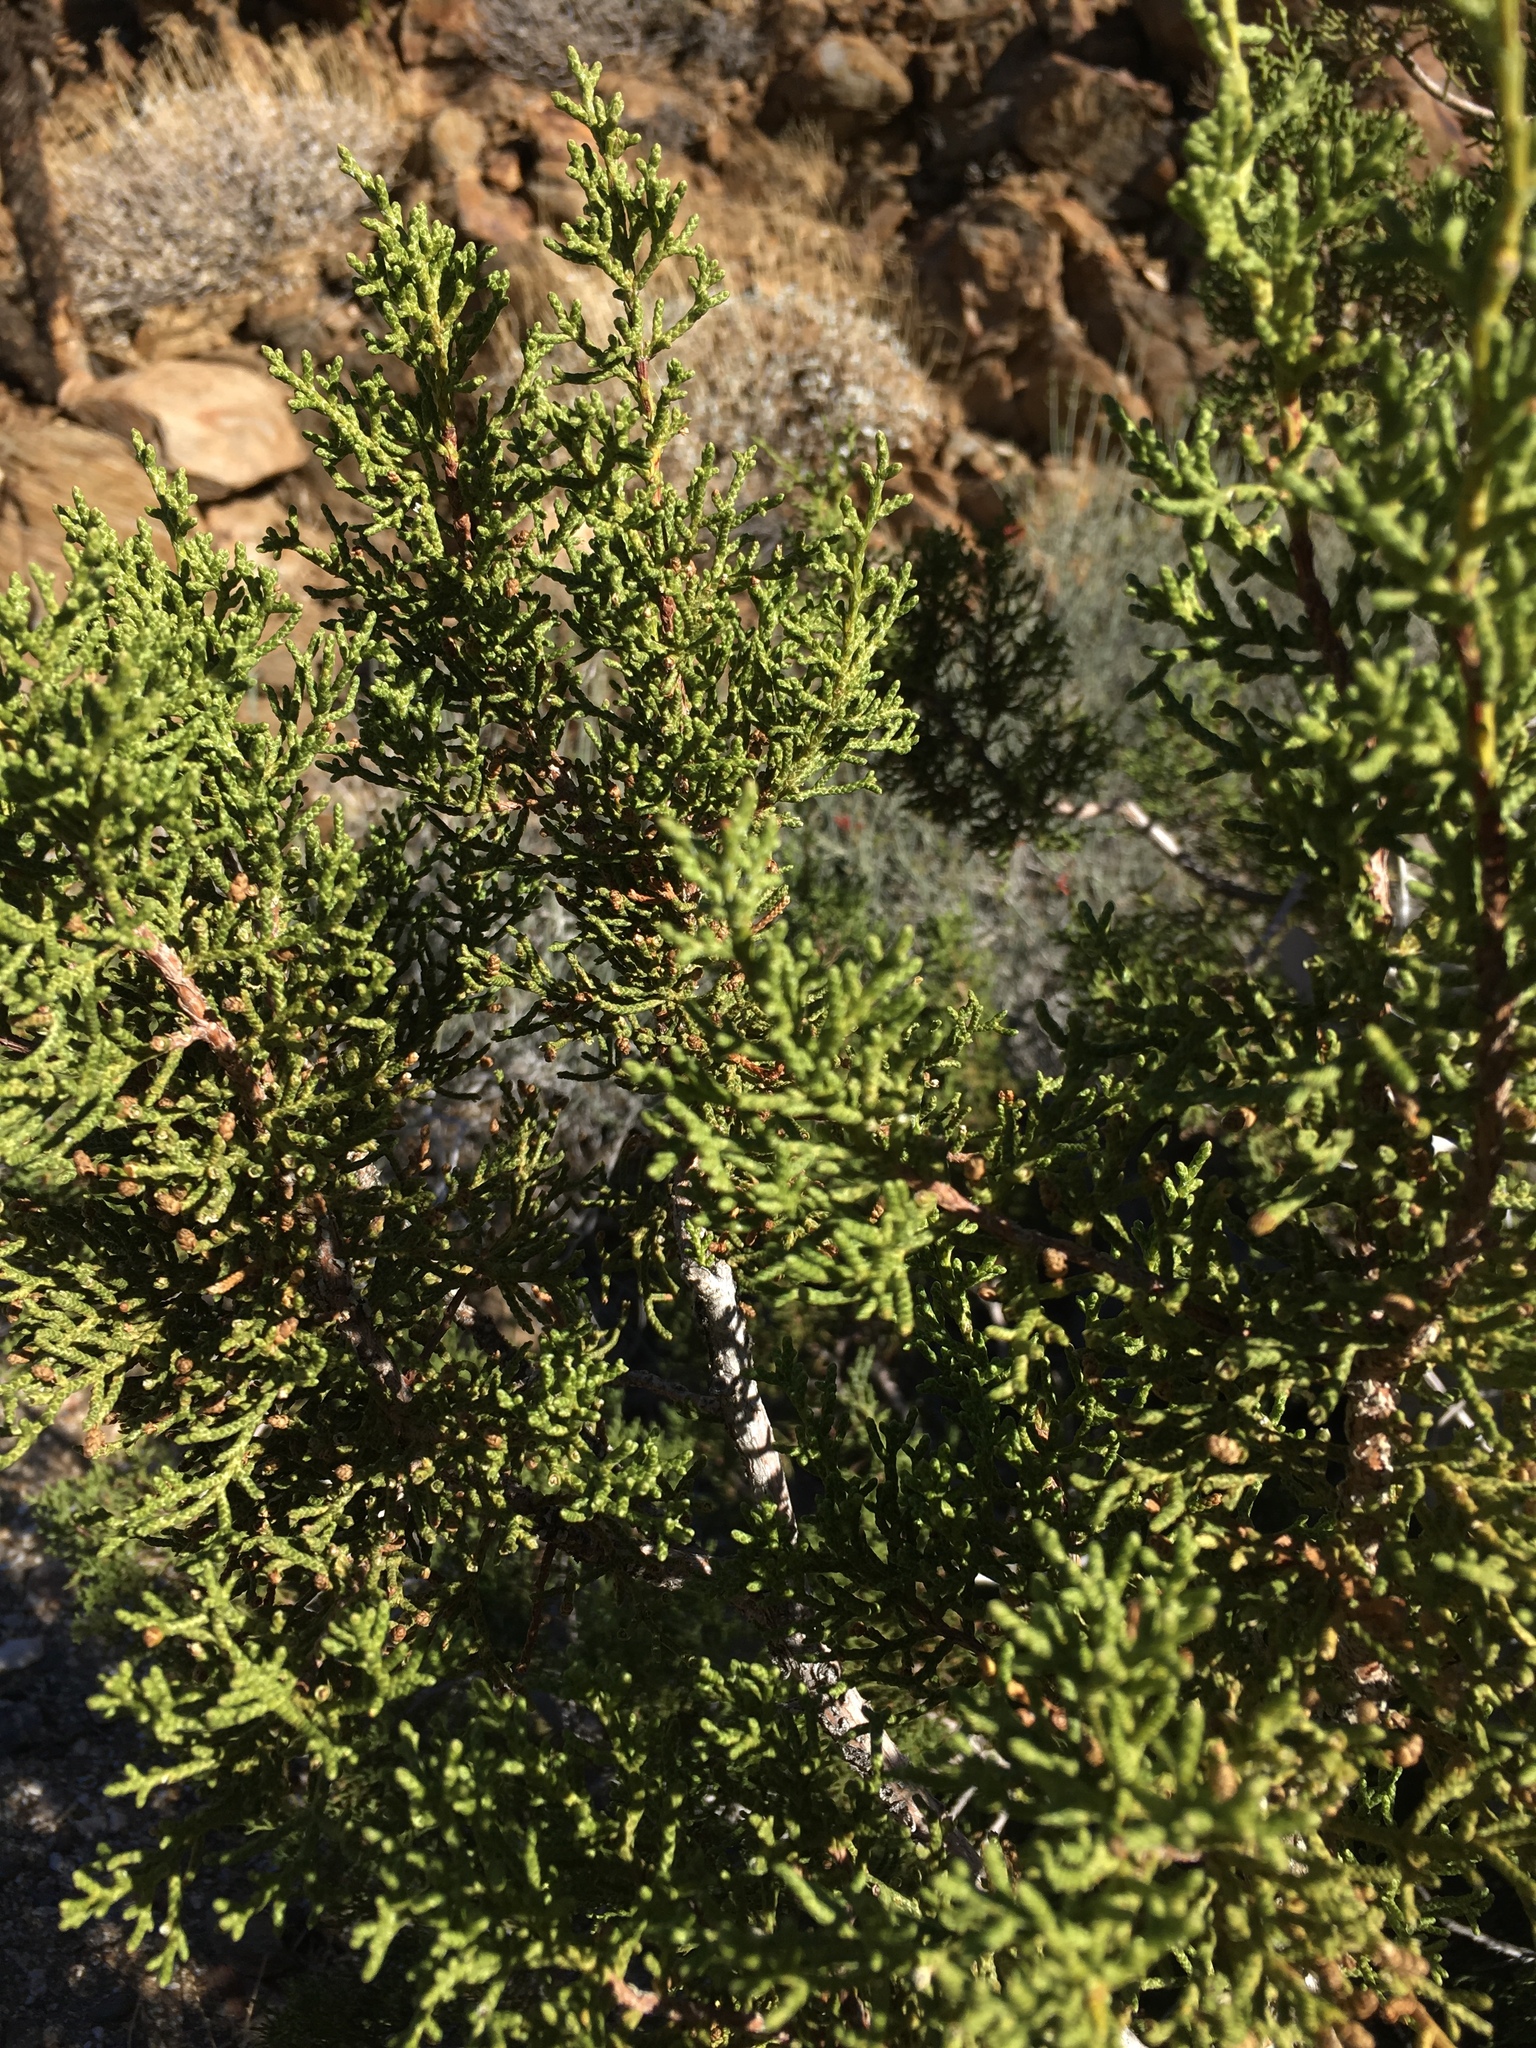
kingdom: Plantae
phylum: Tracheophyta
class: Pinopsida
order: Pinales
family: Cupressaceae
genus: Juniperus
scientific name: Juniperus californica
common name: California juniper
